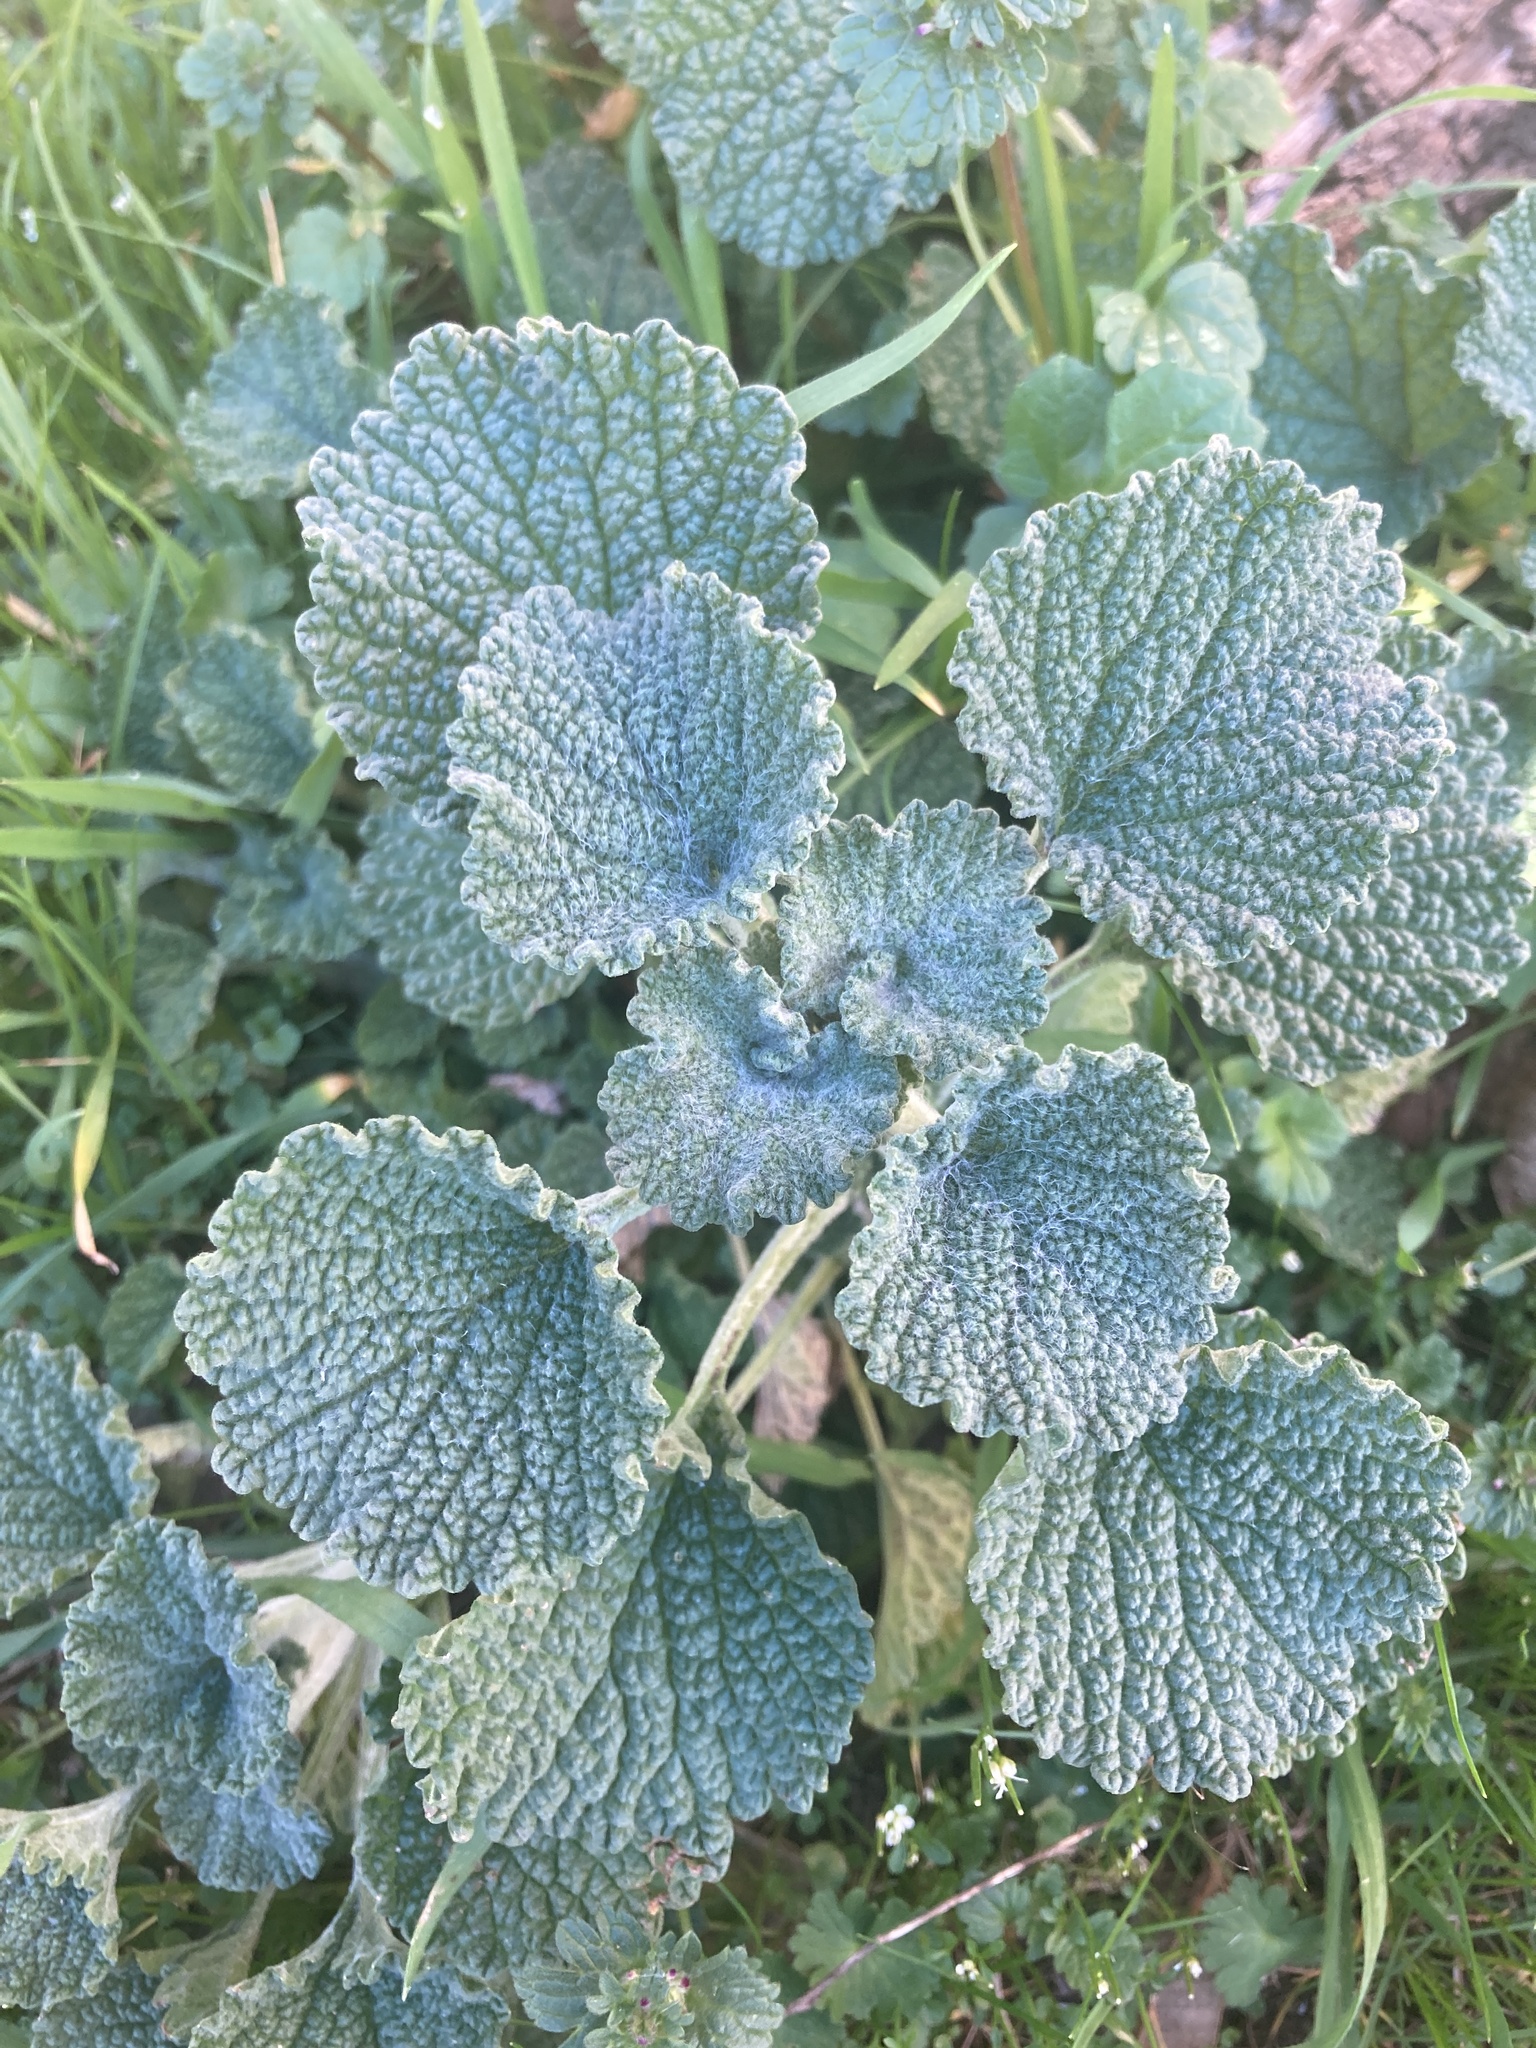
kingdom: Plantae
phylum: Tracheophyta
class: Magnoliopsida
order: Lamiales
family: Lamiaceae
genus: Marrubium
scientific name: Marrubium vulgare
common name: Horehound
